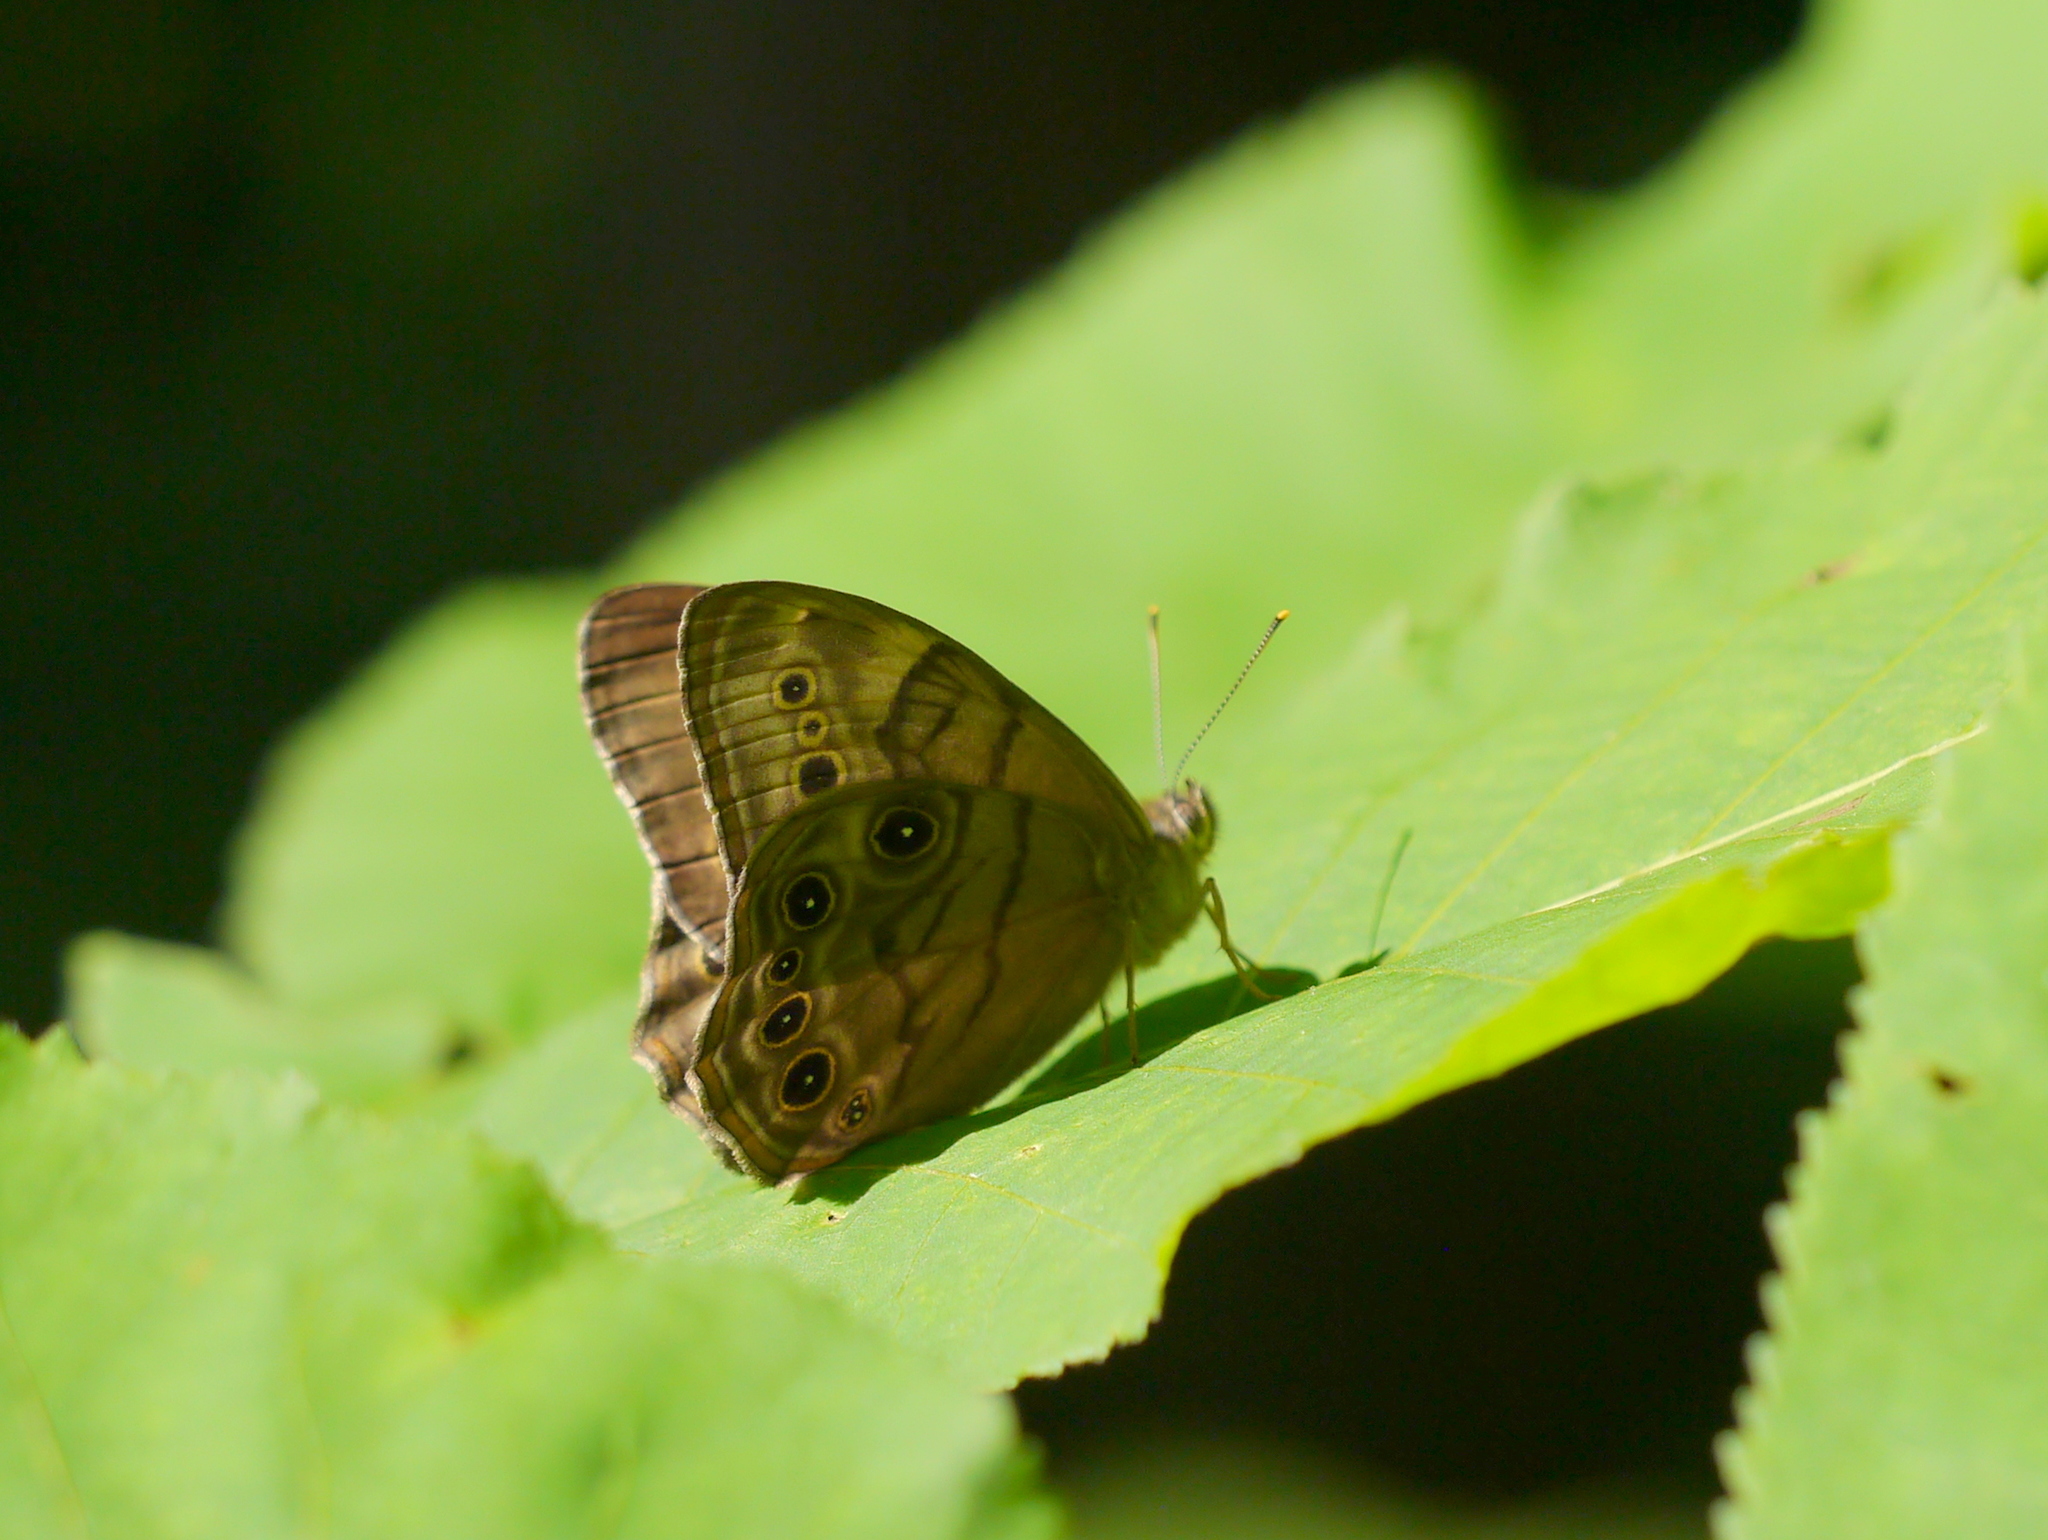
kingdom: Animalia
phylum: Arthropoda
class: Insecta
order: Lepidoptera
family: Nymphalidae
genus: Lethe
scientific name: Lethe anthedon
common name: Northern pearly-eye
